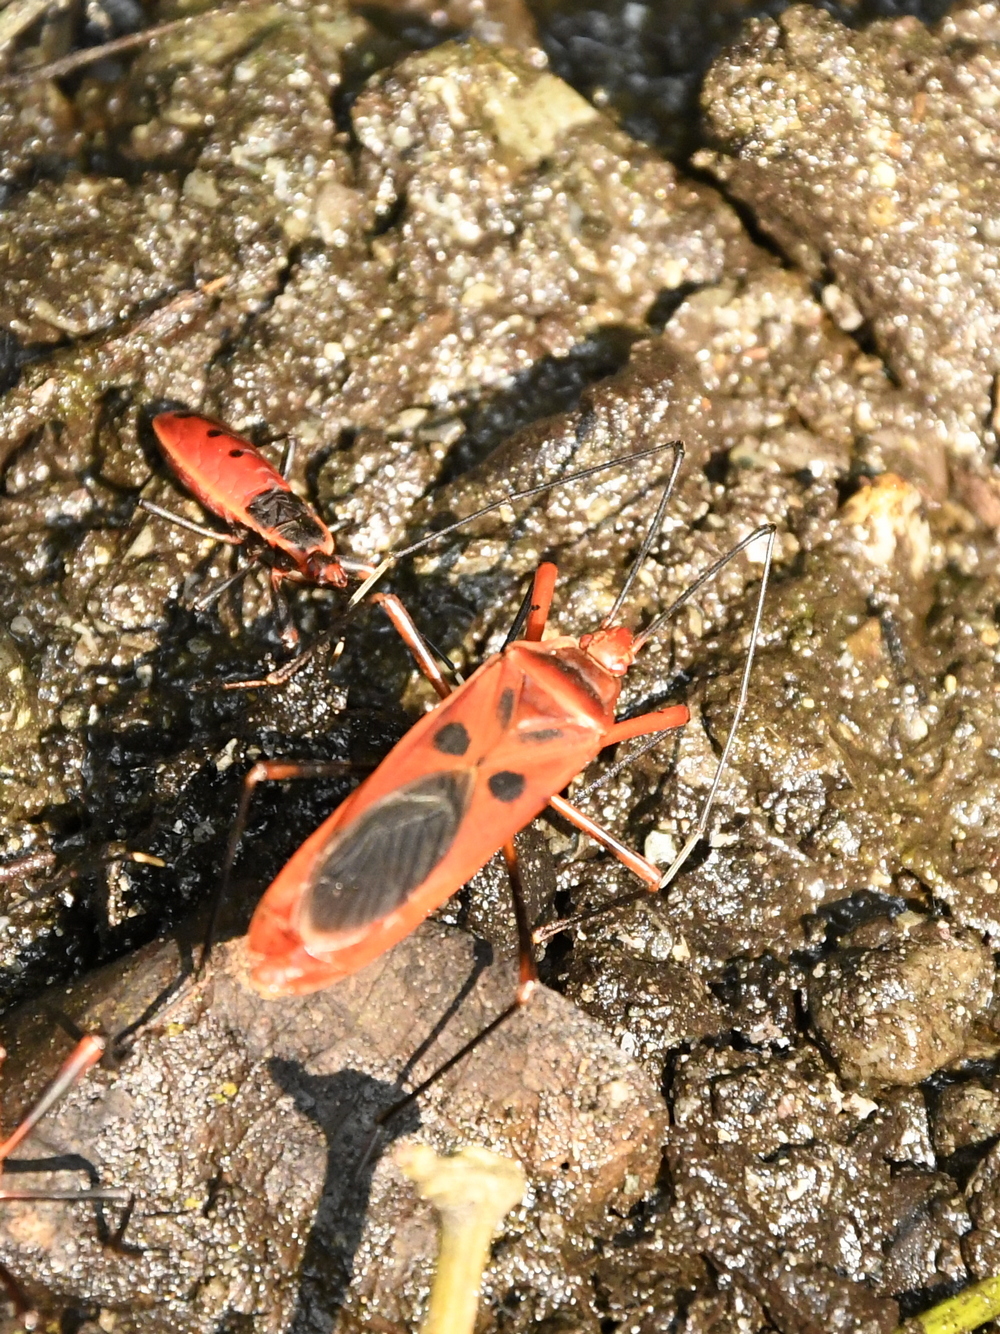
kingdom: Animalia
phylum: Arthropoda
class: Insecta
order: Hemiptera
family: Largidae
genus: Macrocheraia
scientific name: Macrocheraia grandis
